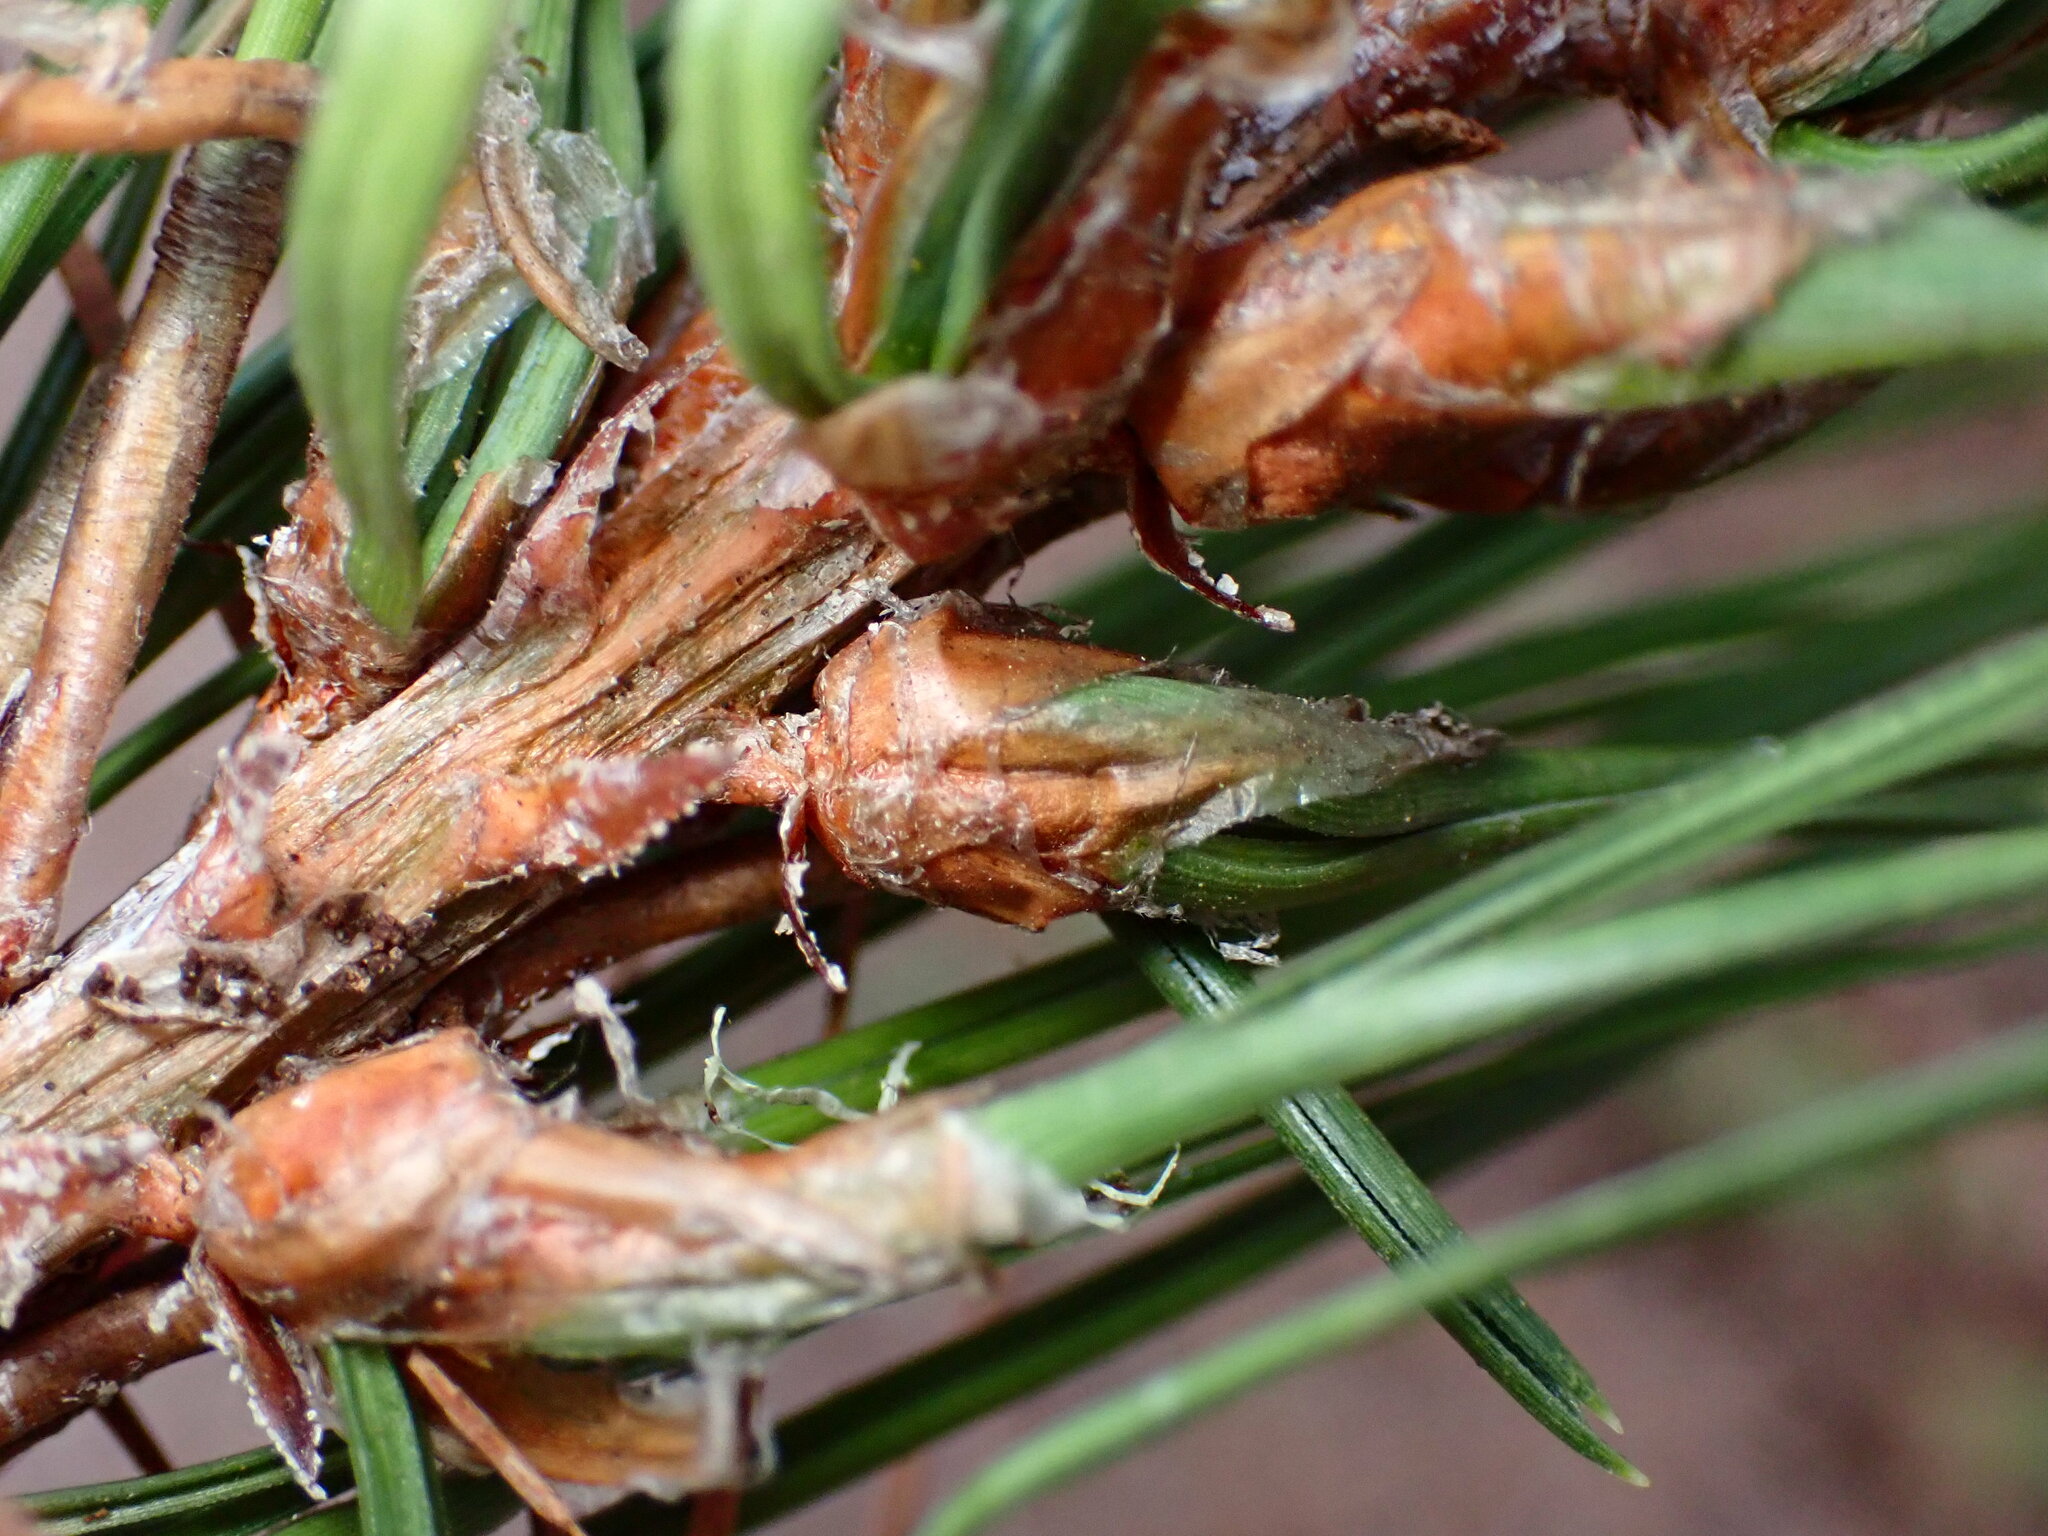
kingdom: Animalia
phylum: Arthropoda
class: Insecta
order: Diptera
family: Cecidomyiidae
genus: Thecodiplosis
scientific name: Thecodiplosis piniradiatae
